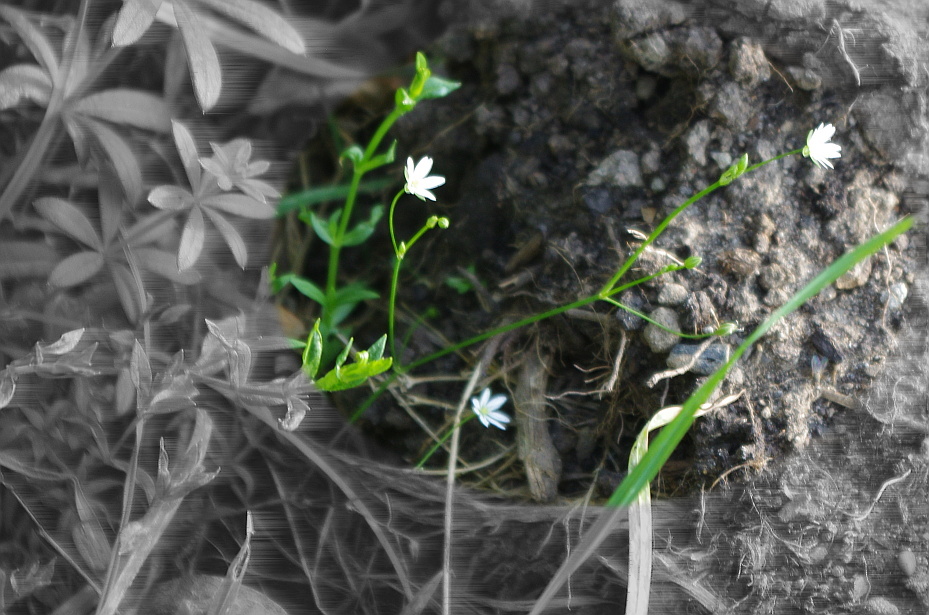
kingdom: Plantae
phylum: Tracheophyta
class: Magnoliopsida
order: Caryophyllales
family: Caryophyllaceae
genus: Stellaria
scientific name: Stellaria graminea
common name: Grass-like starwort
